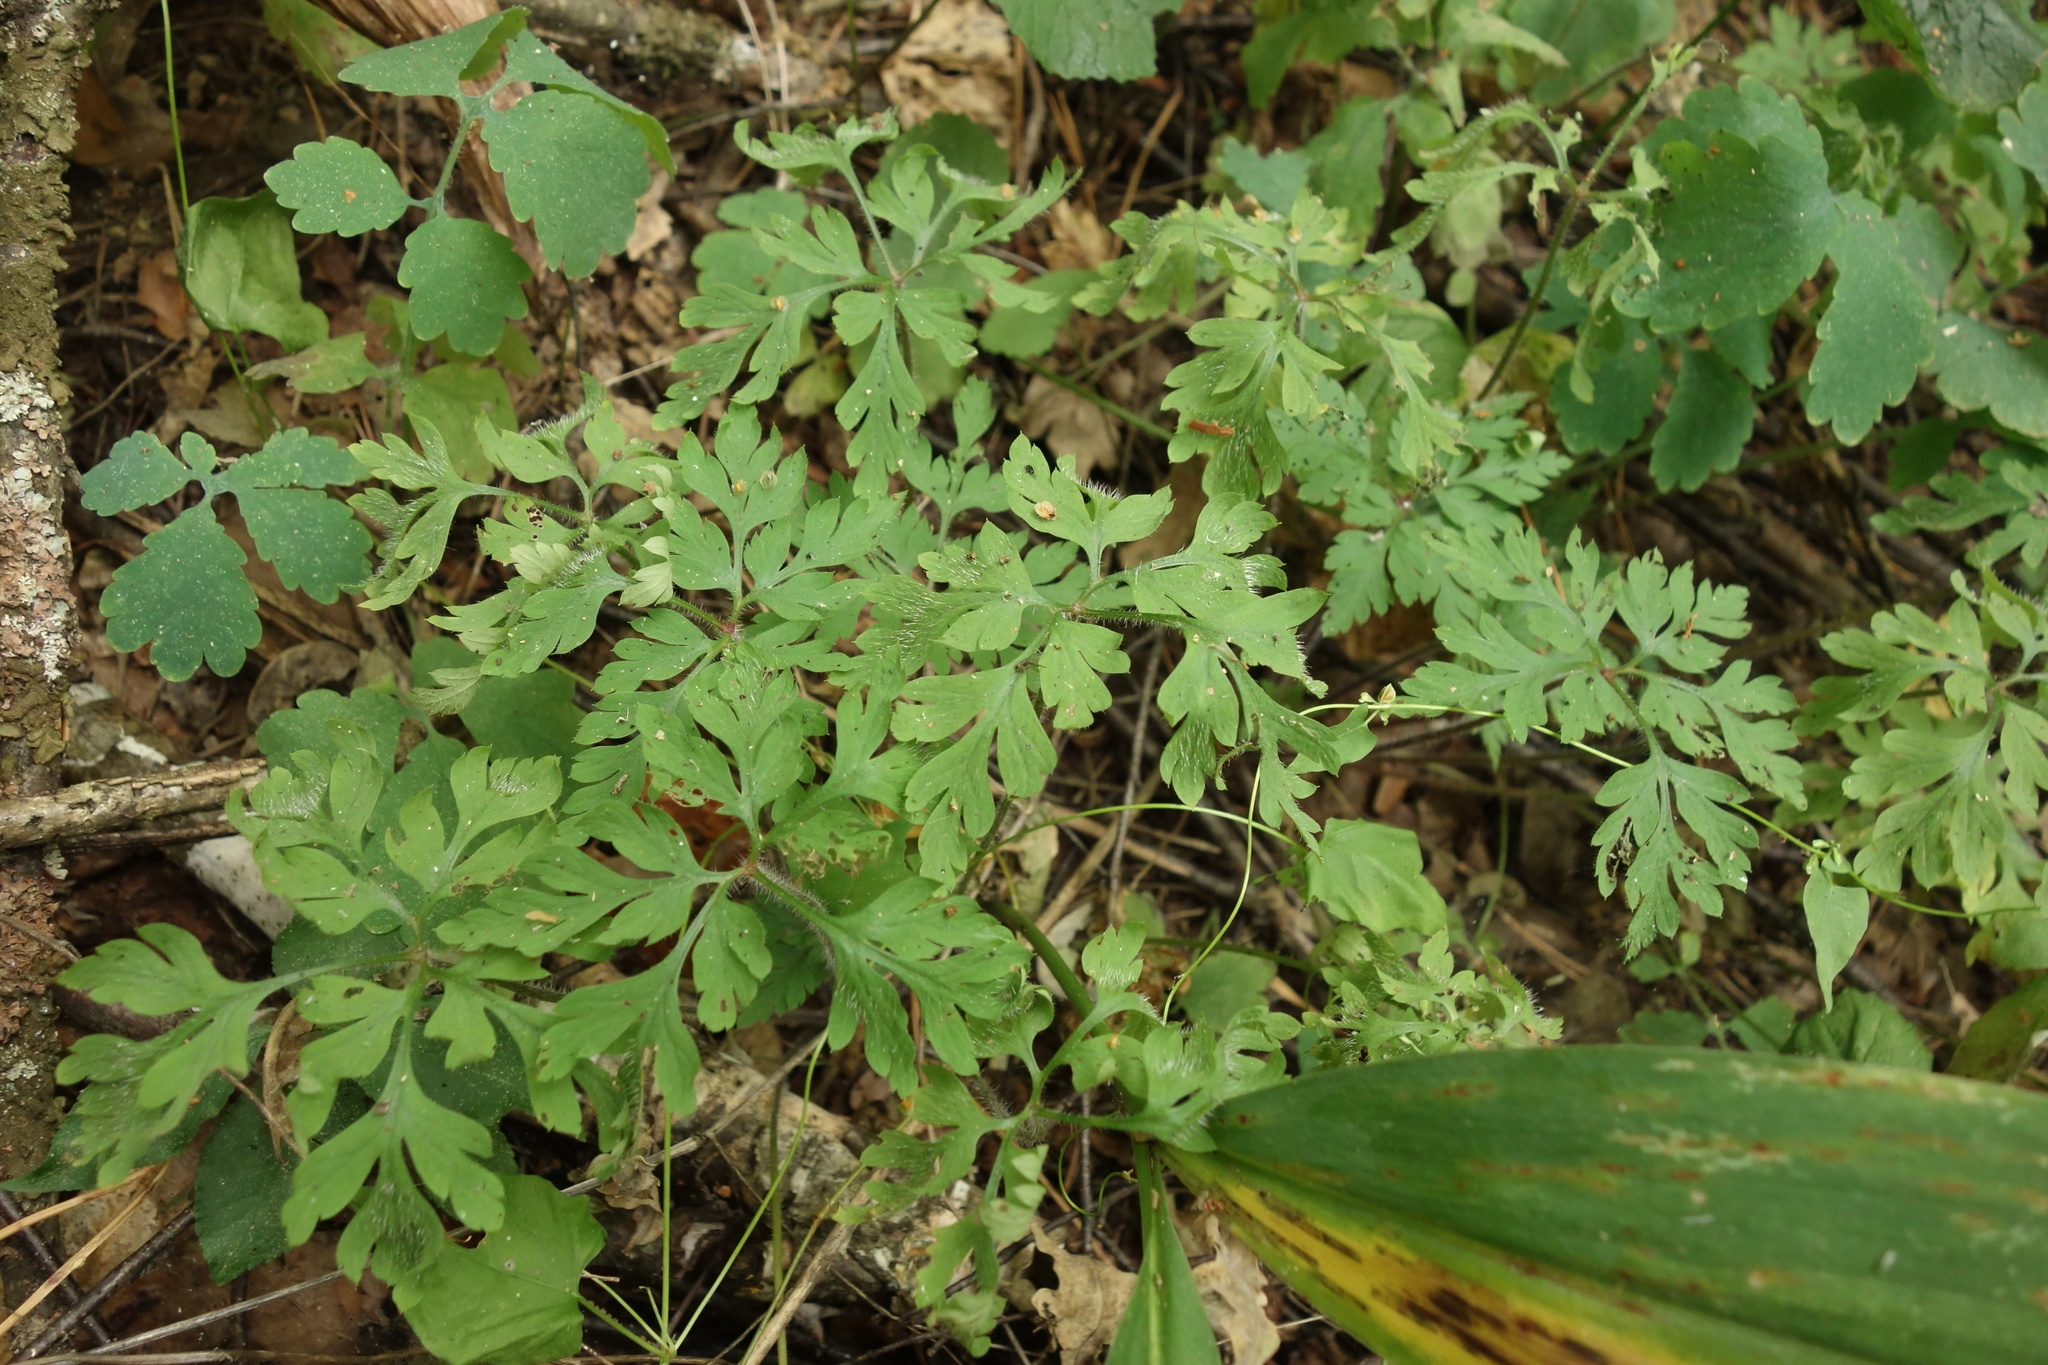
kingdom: Plantae
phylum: Tracheophyta
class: Magnoliopsida
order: Geraniales
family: Geraniaceae
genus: Geranium
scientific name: Geranium robertianum
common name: Herb-robert
